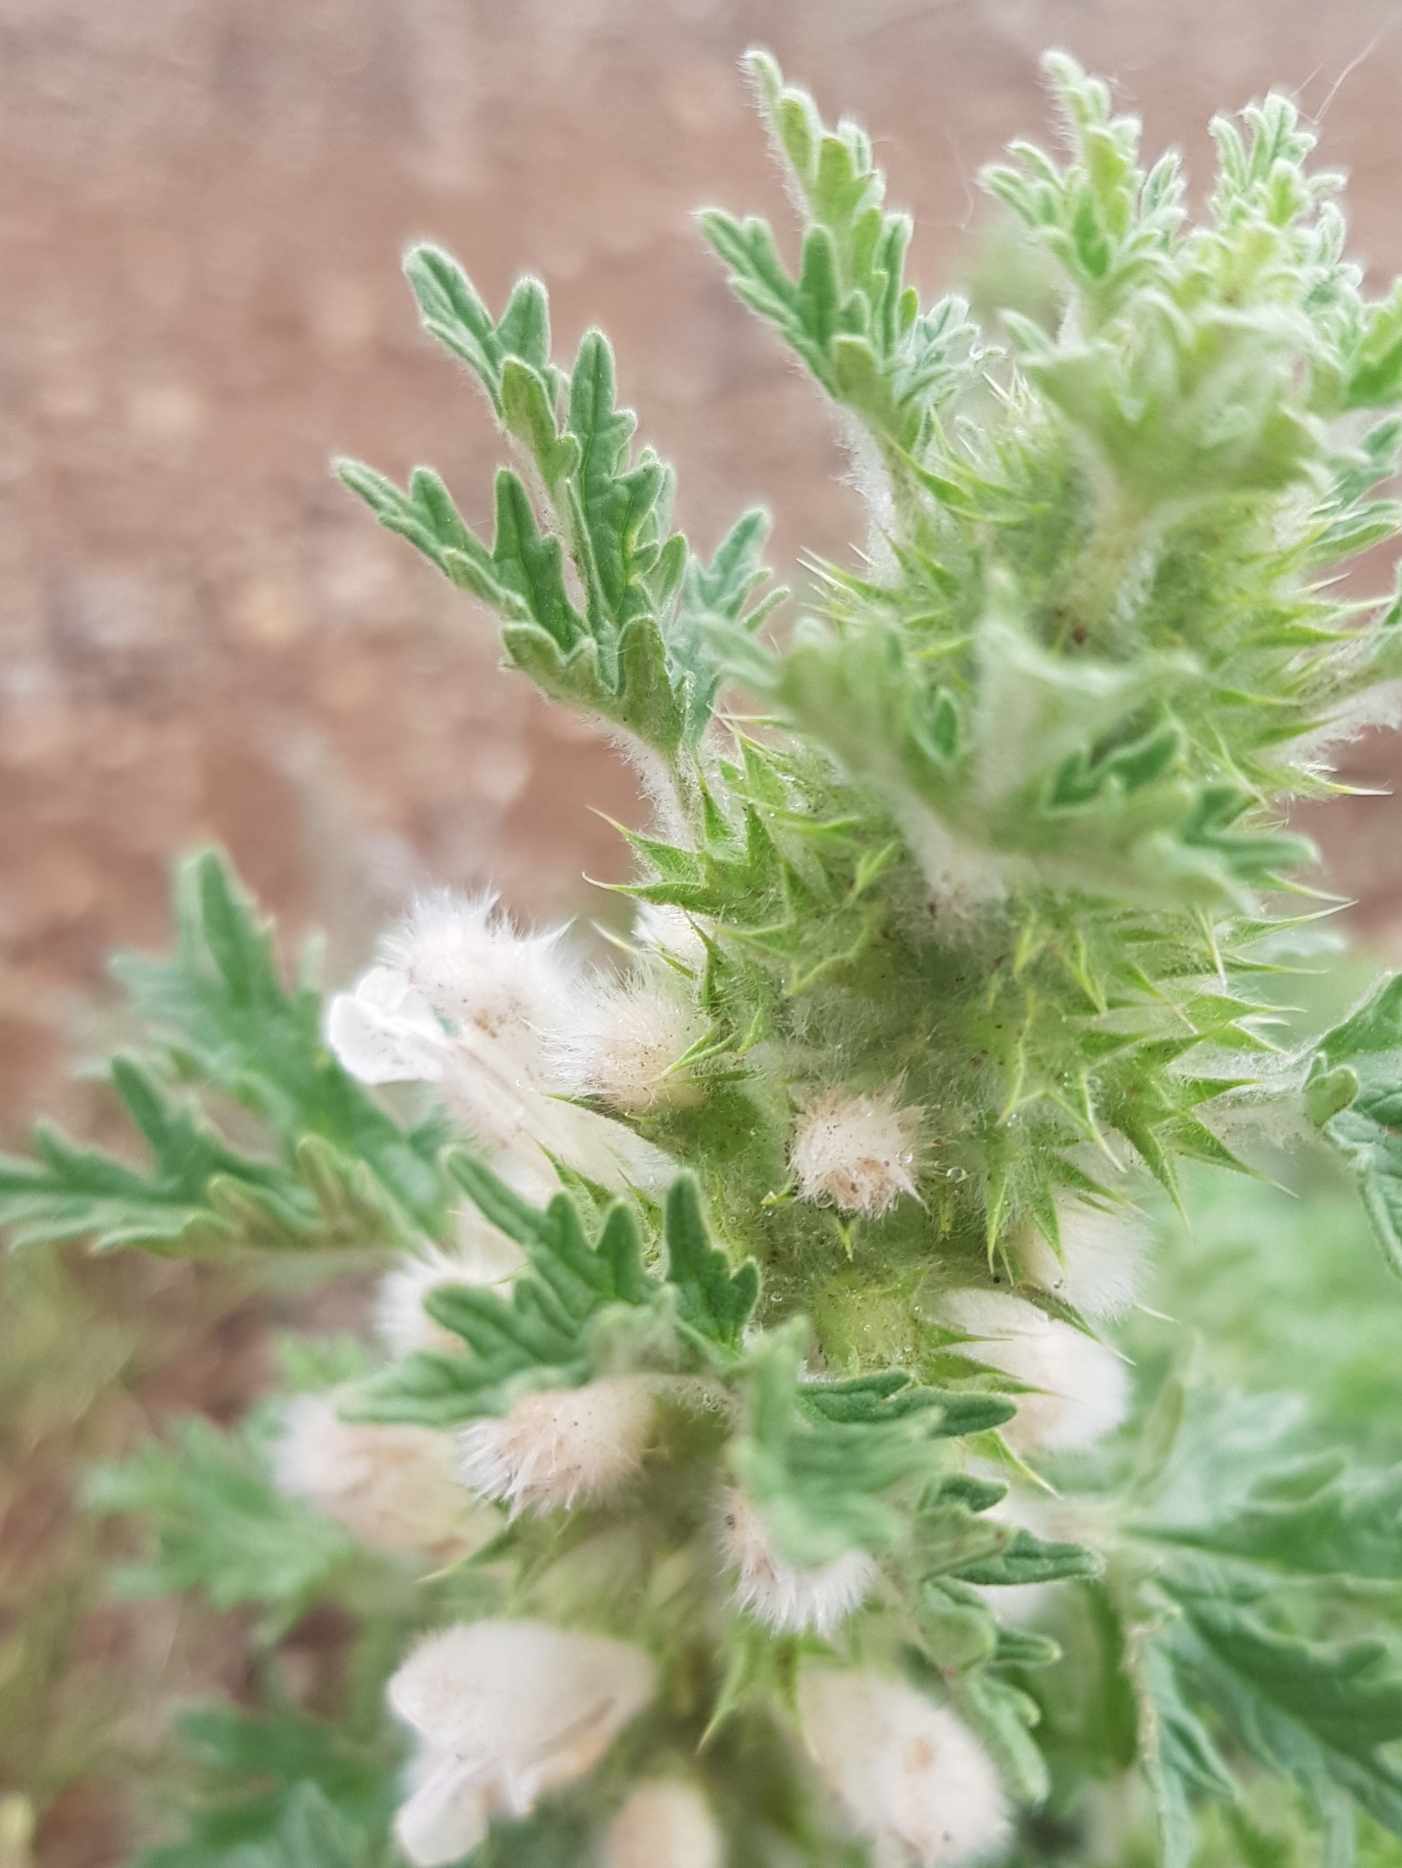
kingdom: Plantae
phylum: Tracheophyta
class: Magnoliopsida
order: Lamiales
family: Lamiaceae
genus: Panzerina
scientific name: Panzerina lanata
